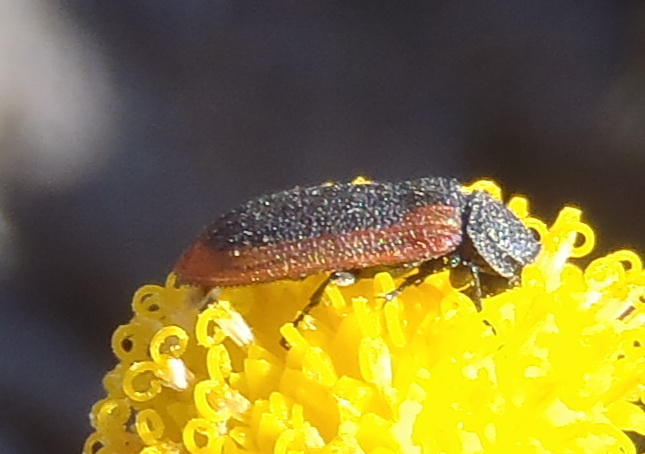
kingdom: Animalia
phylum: Arthropoda
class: Insecta
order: Coleoptera
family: Melyridae
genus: Melyris
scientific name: Melyris
